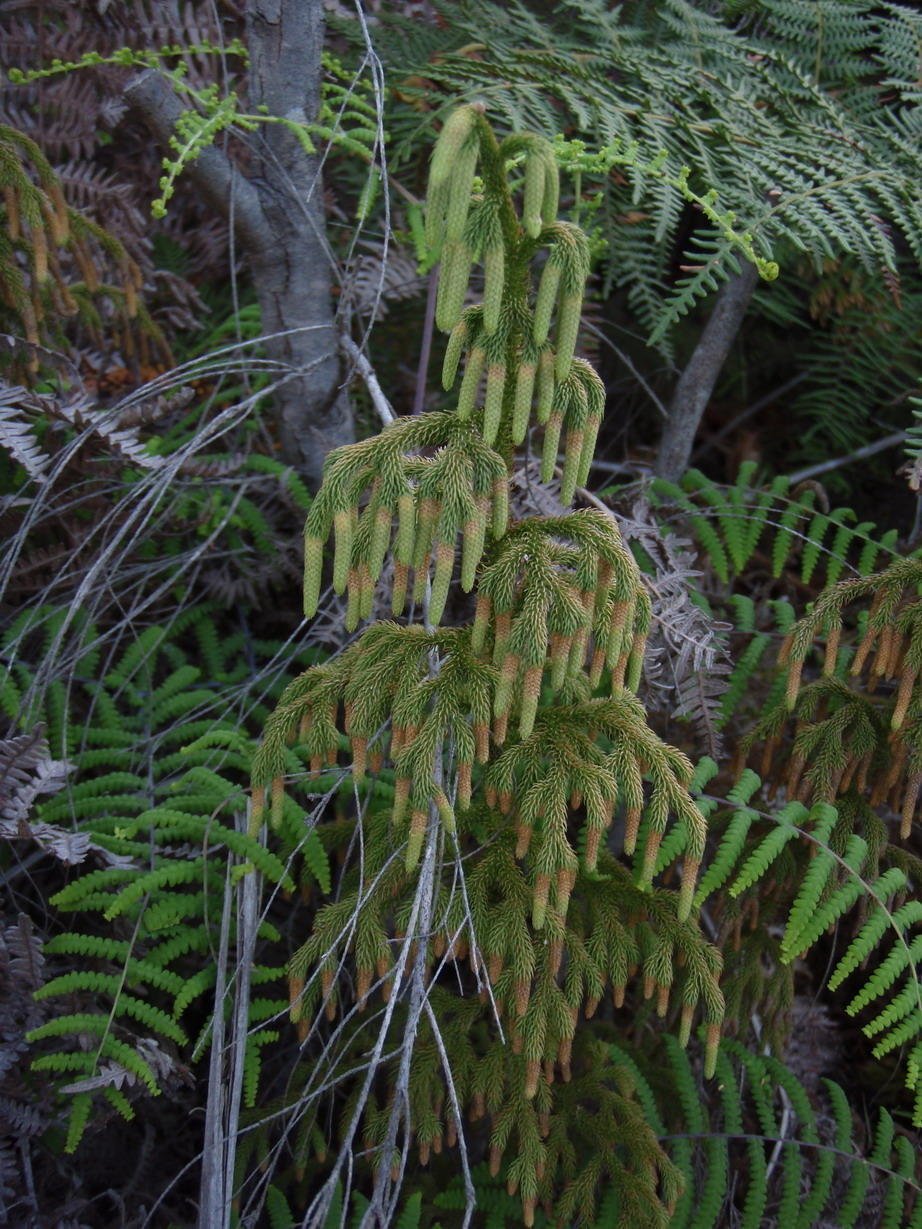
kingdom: Plantae
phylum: Tracheophyta
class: Lycopodiopsida
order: Lycopodiales
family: Lycopodiaceae
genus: Palhinhaea
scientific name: Palhinhaea cernua
